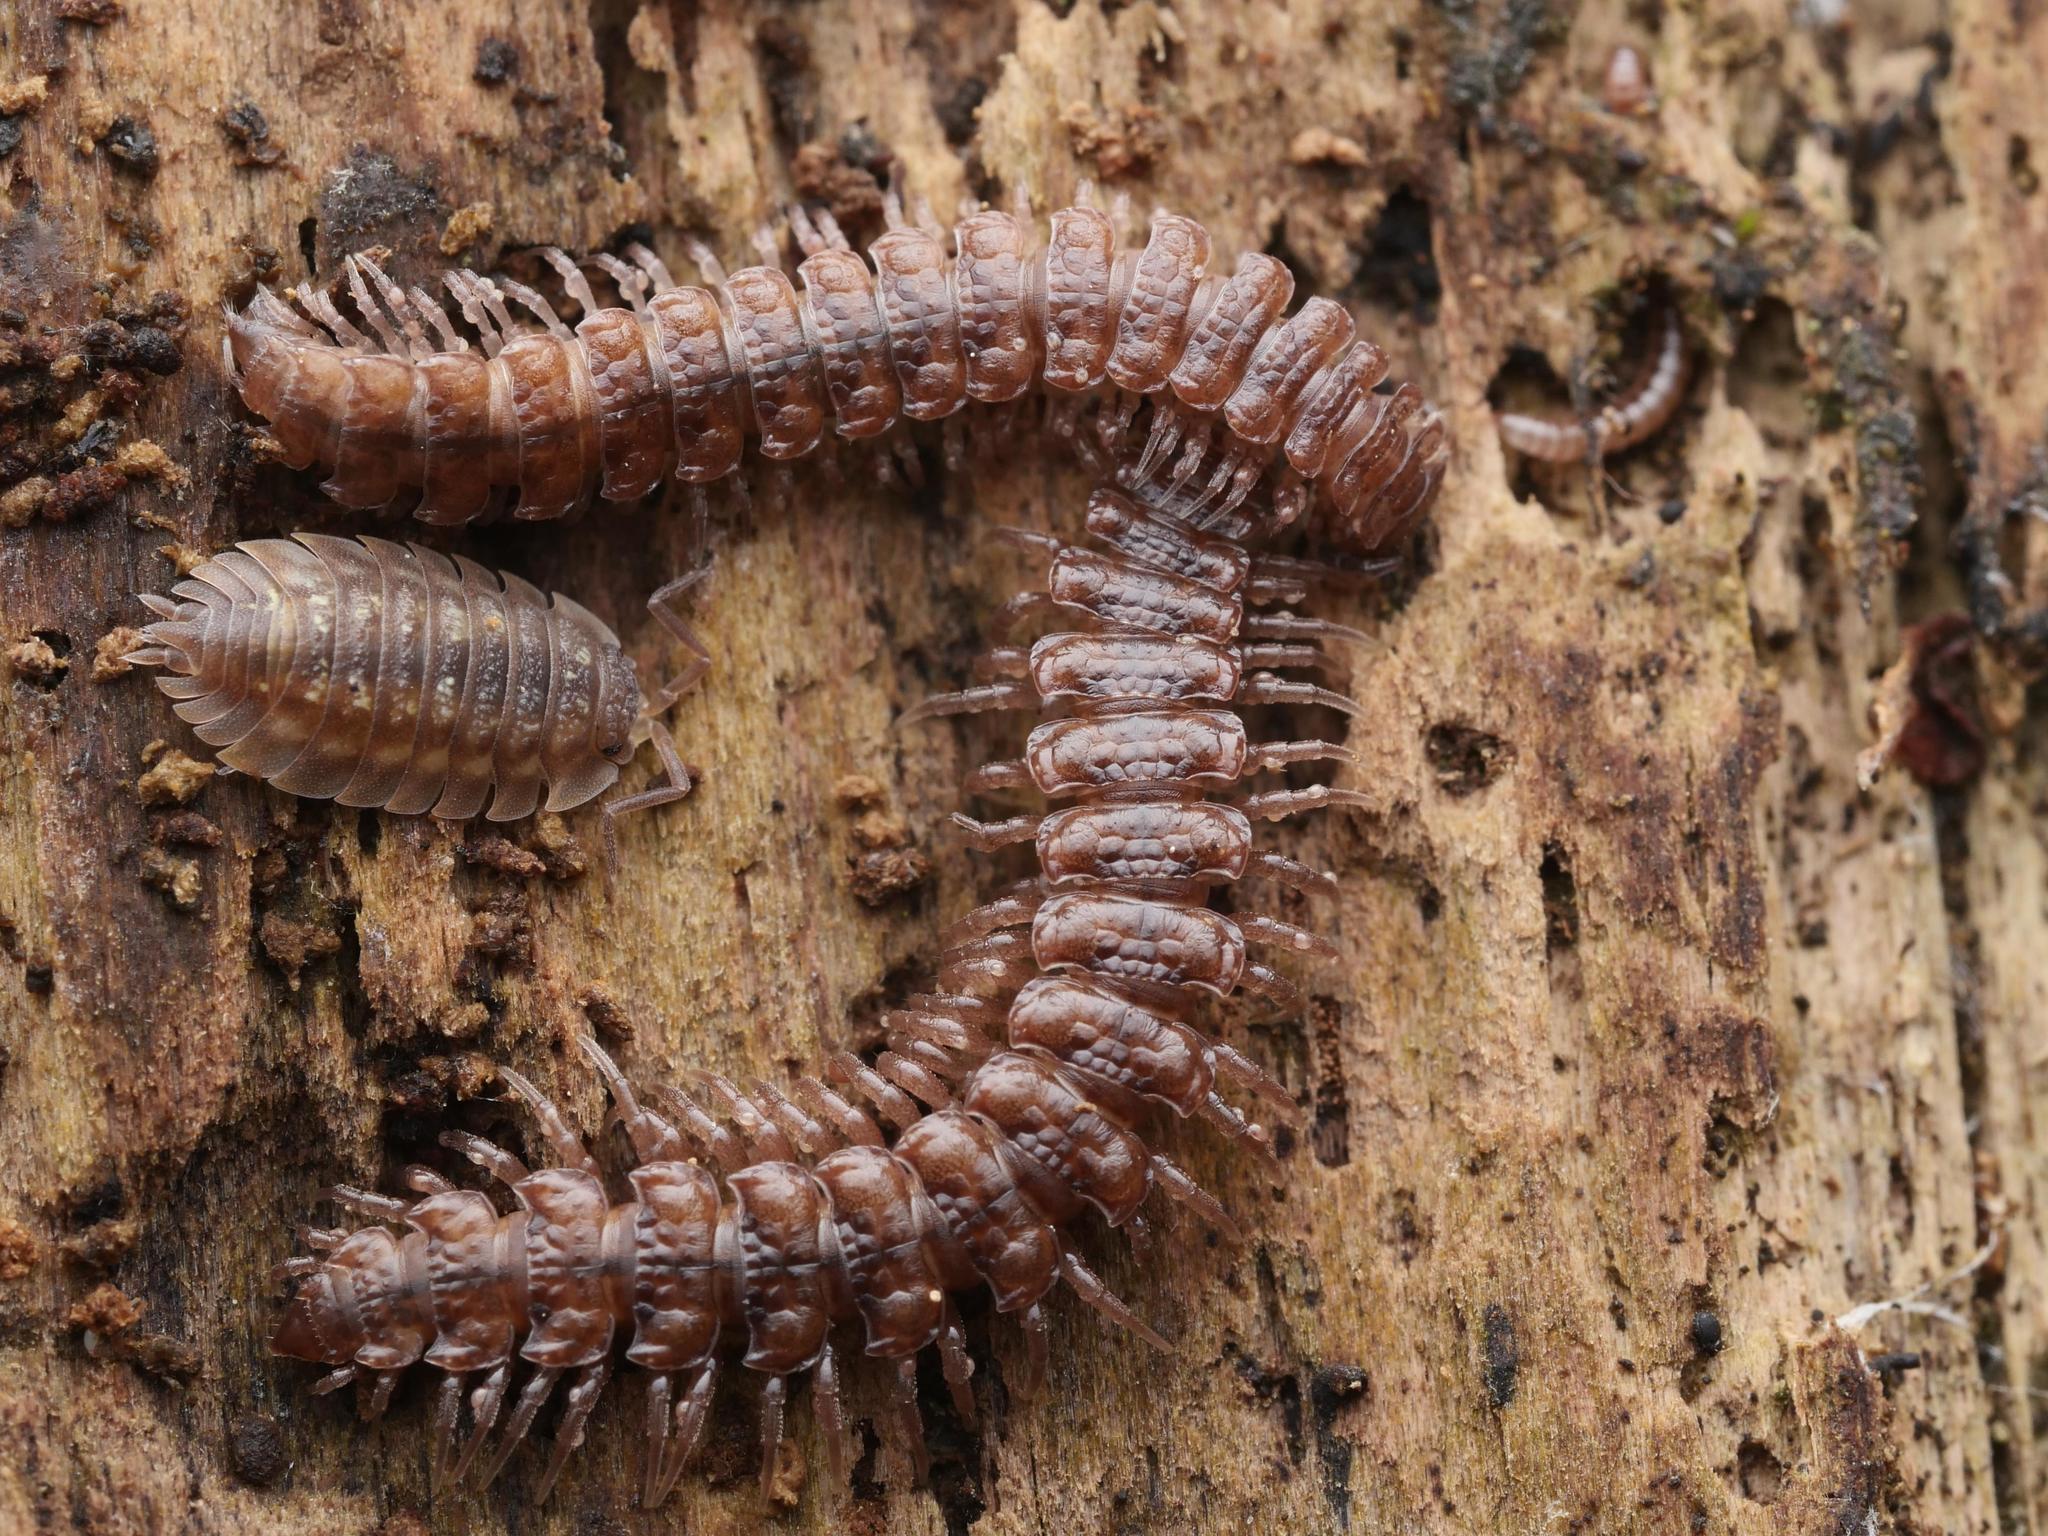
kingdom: Animalia
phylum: Arthropoda
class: Diplopoda
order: Polydesmida
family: Polydesmidae
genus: Polydesmus
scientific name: Polydesmus angustus
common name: Flat millipede
